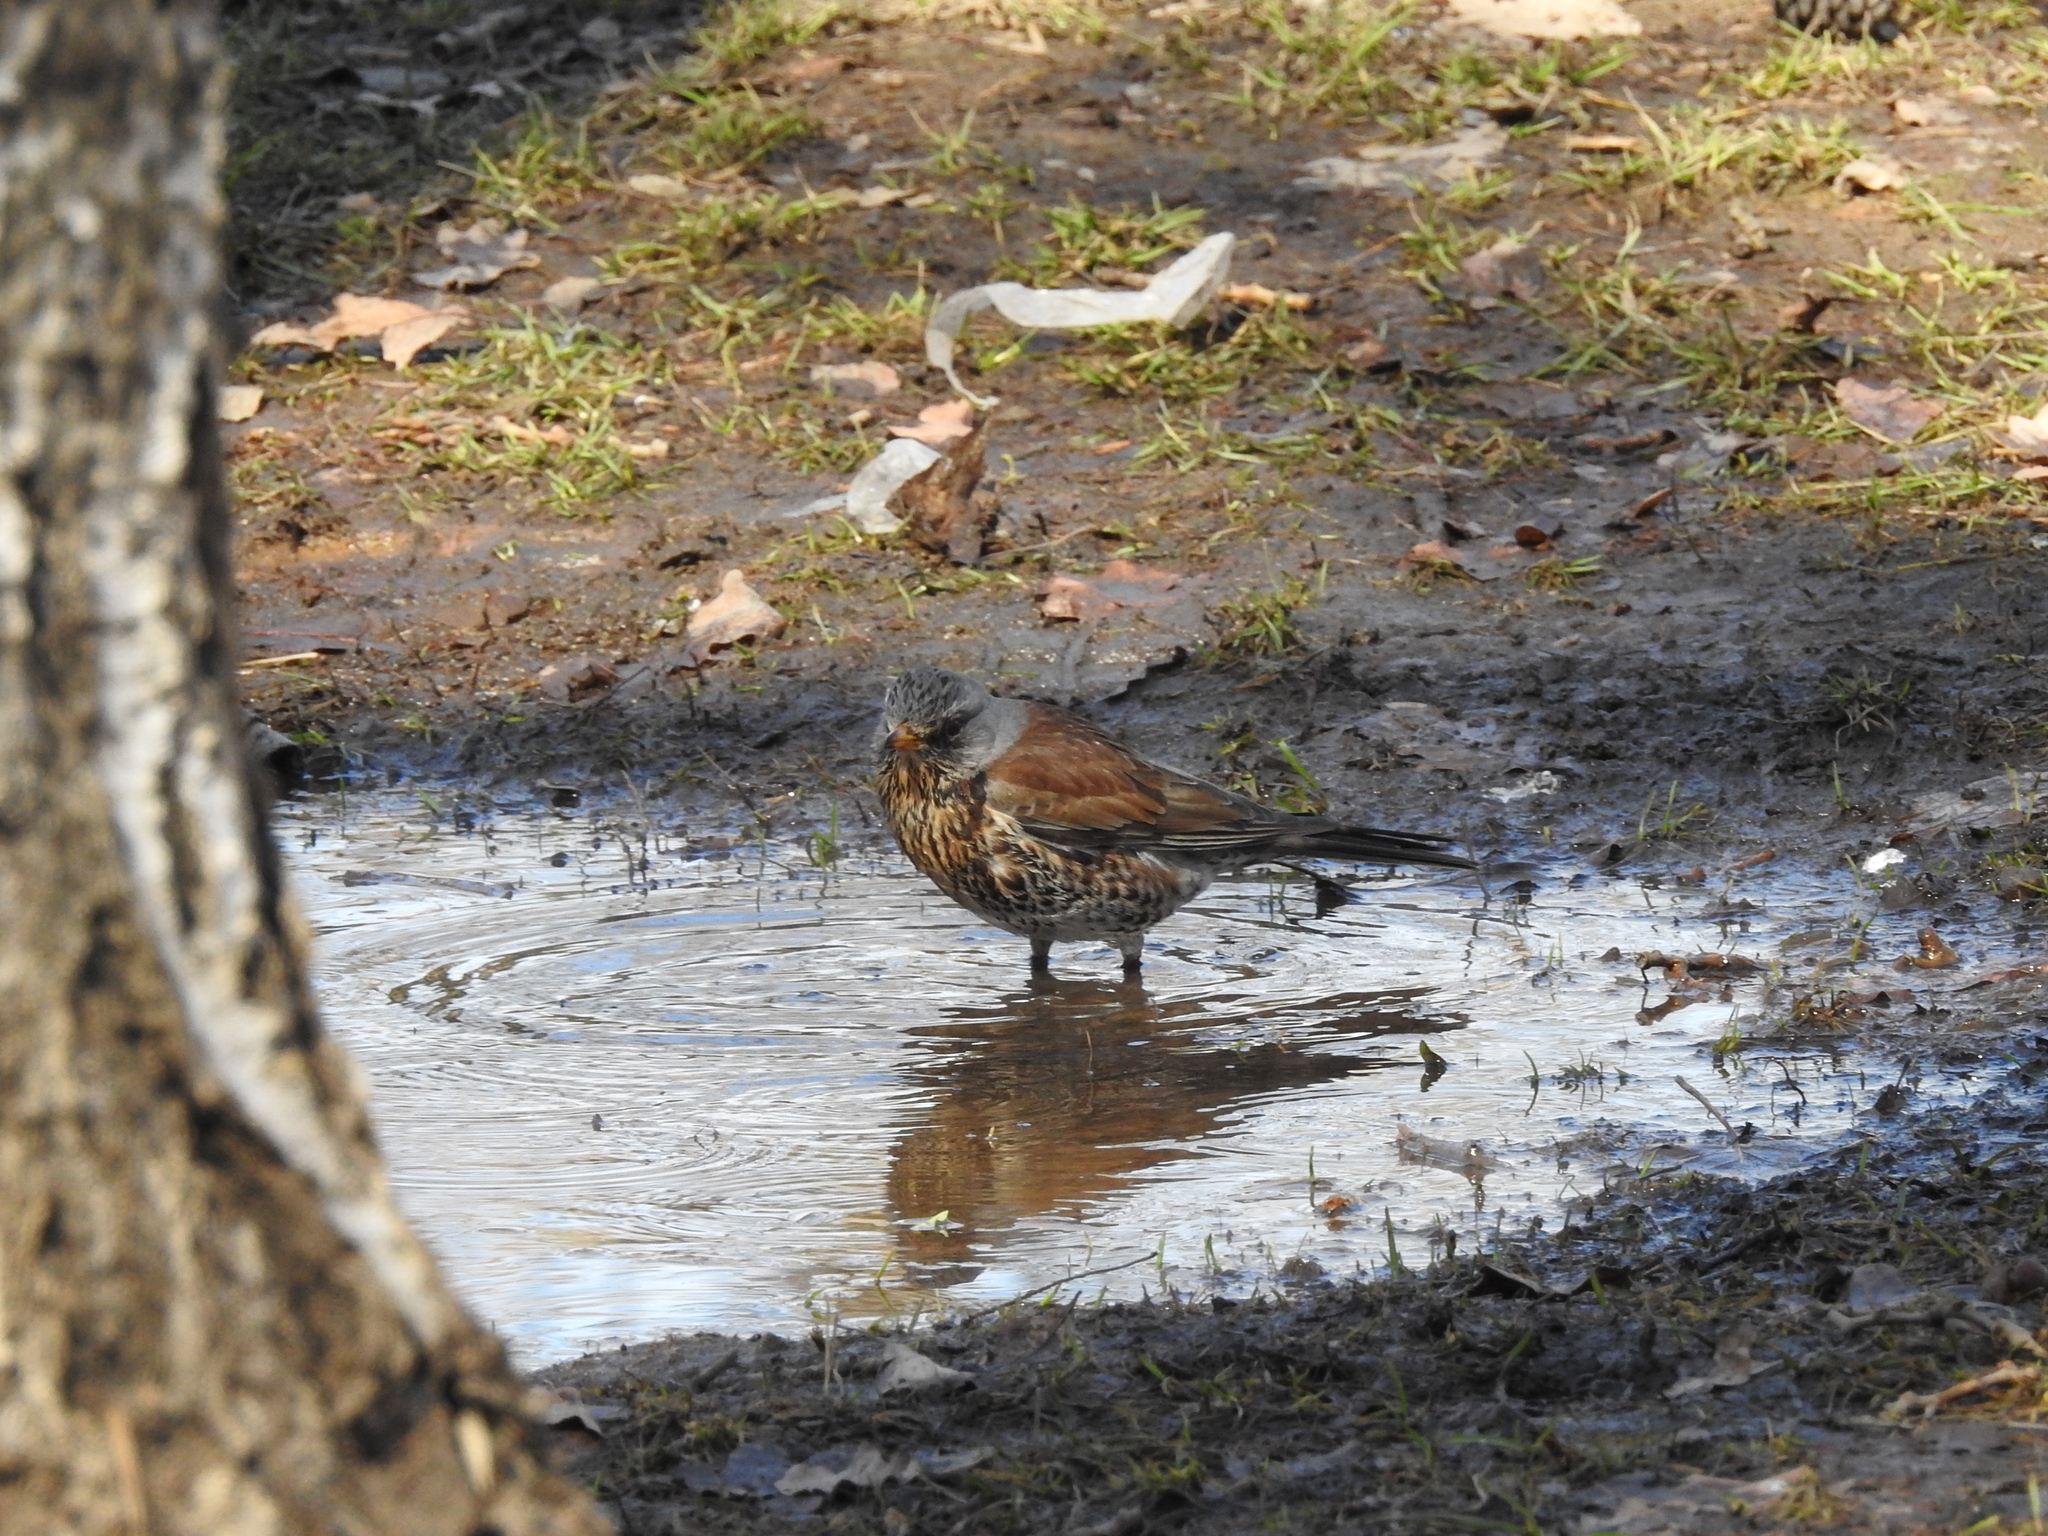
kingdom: Animalia
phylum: Chordata
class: Aves
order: Passeriformes
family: Turdidae
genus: Turdus
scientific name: Turdus pilaris
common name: Fieldfare
